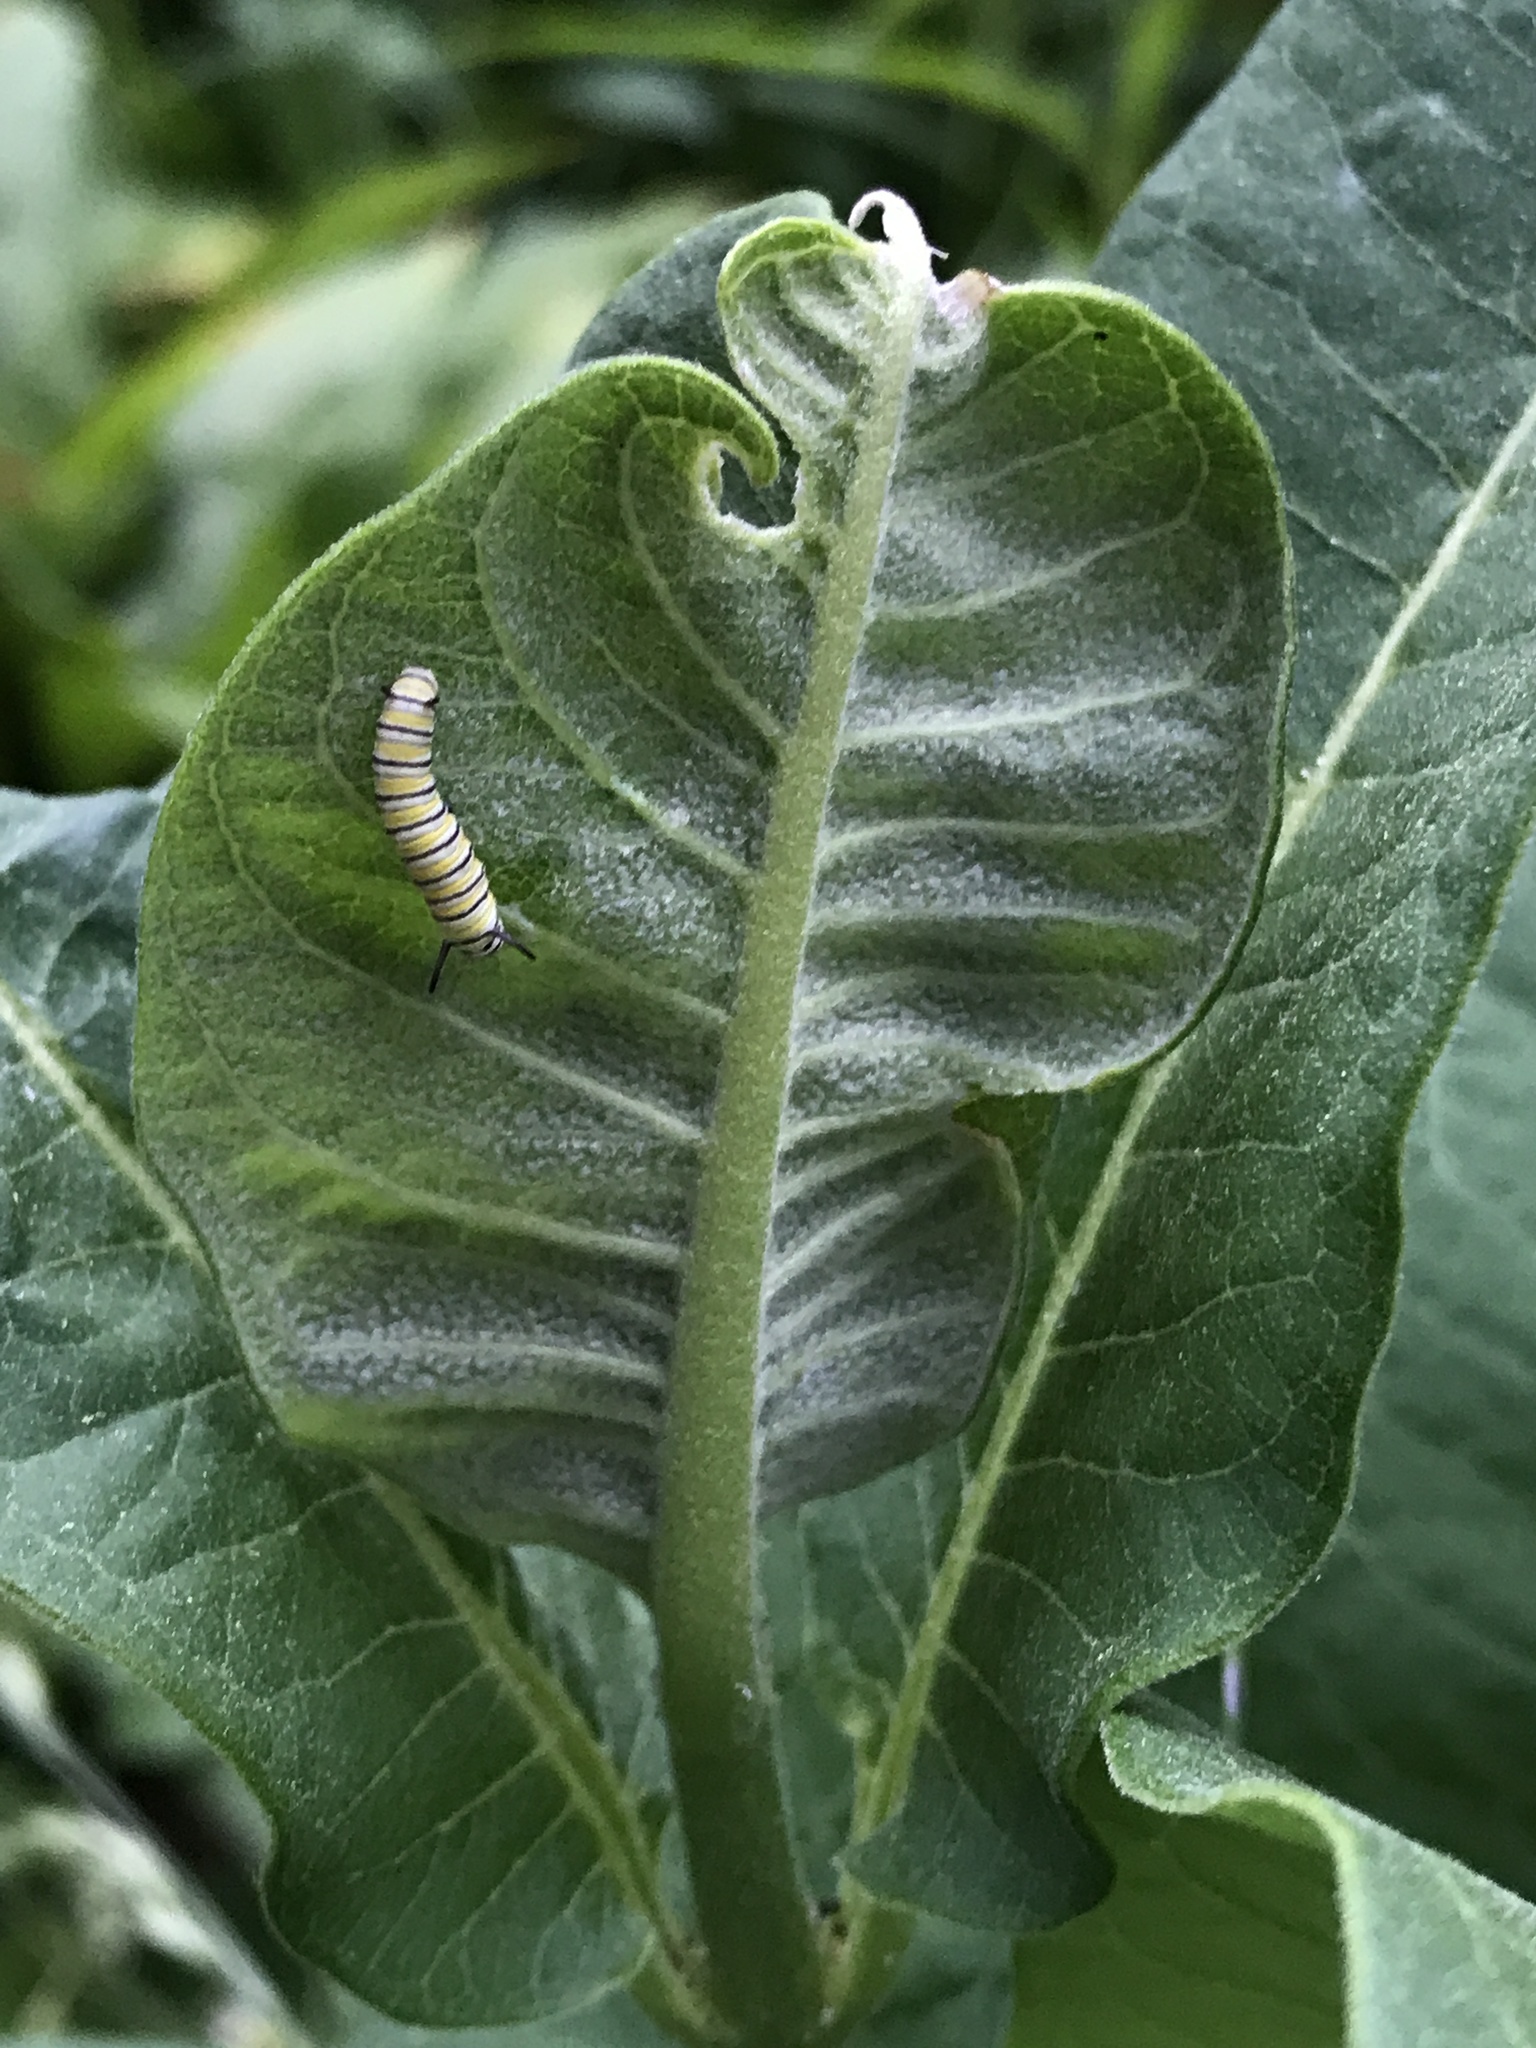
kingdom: Animalia
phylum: Arthropoda
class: Insecta
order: Lepidoptera
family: Nymphalidae
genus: Danaus
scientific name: Danaus plexippus
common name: Monarch
